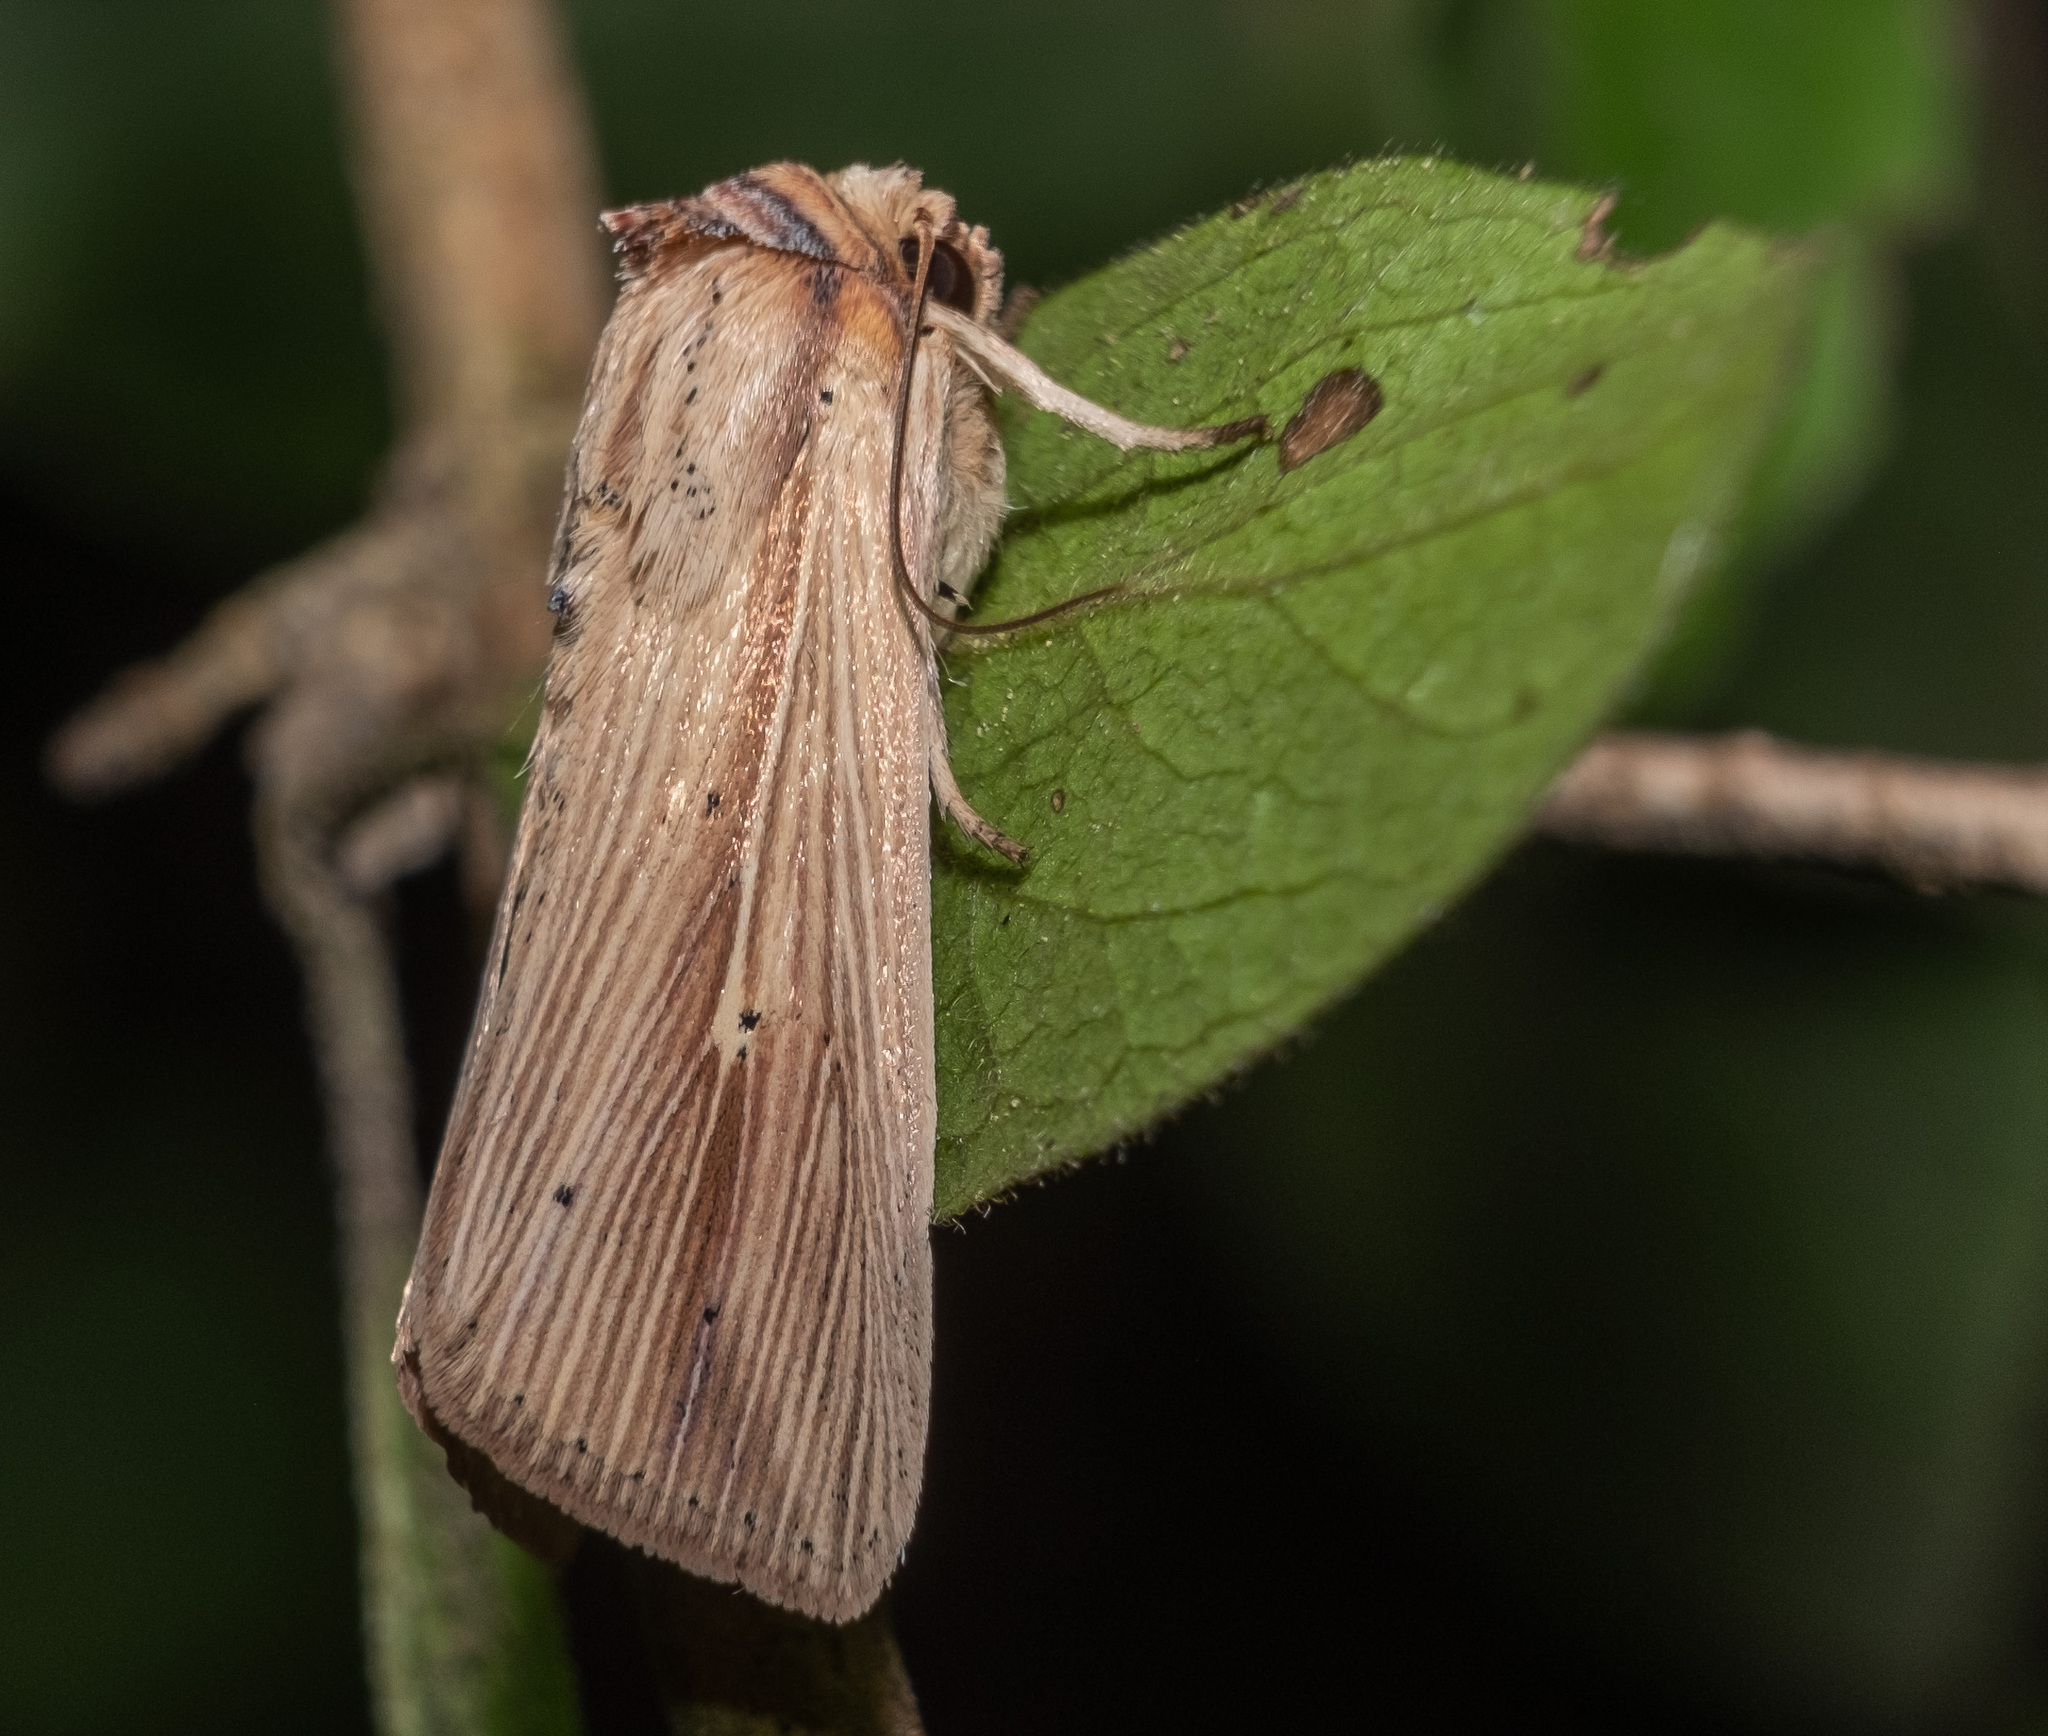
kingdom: Animalia
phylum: Arthropoda
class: Insecta
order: Lepidoptera
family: Noctuidae
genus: Leucania
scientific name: Leucania adjuta
